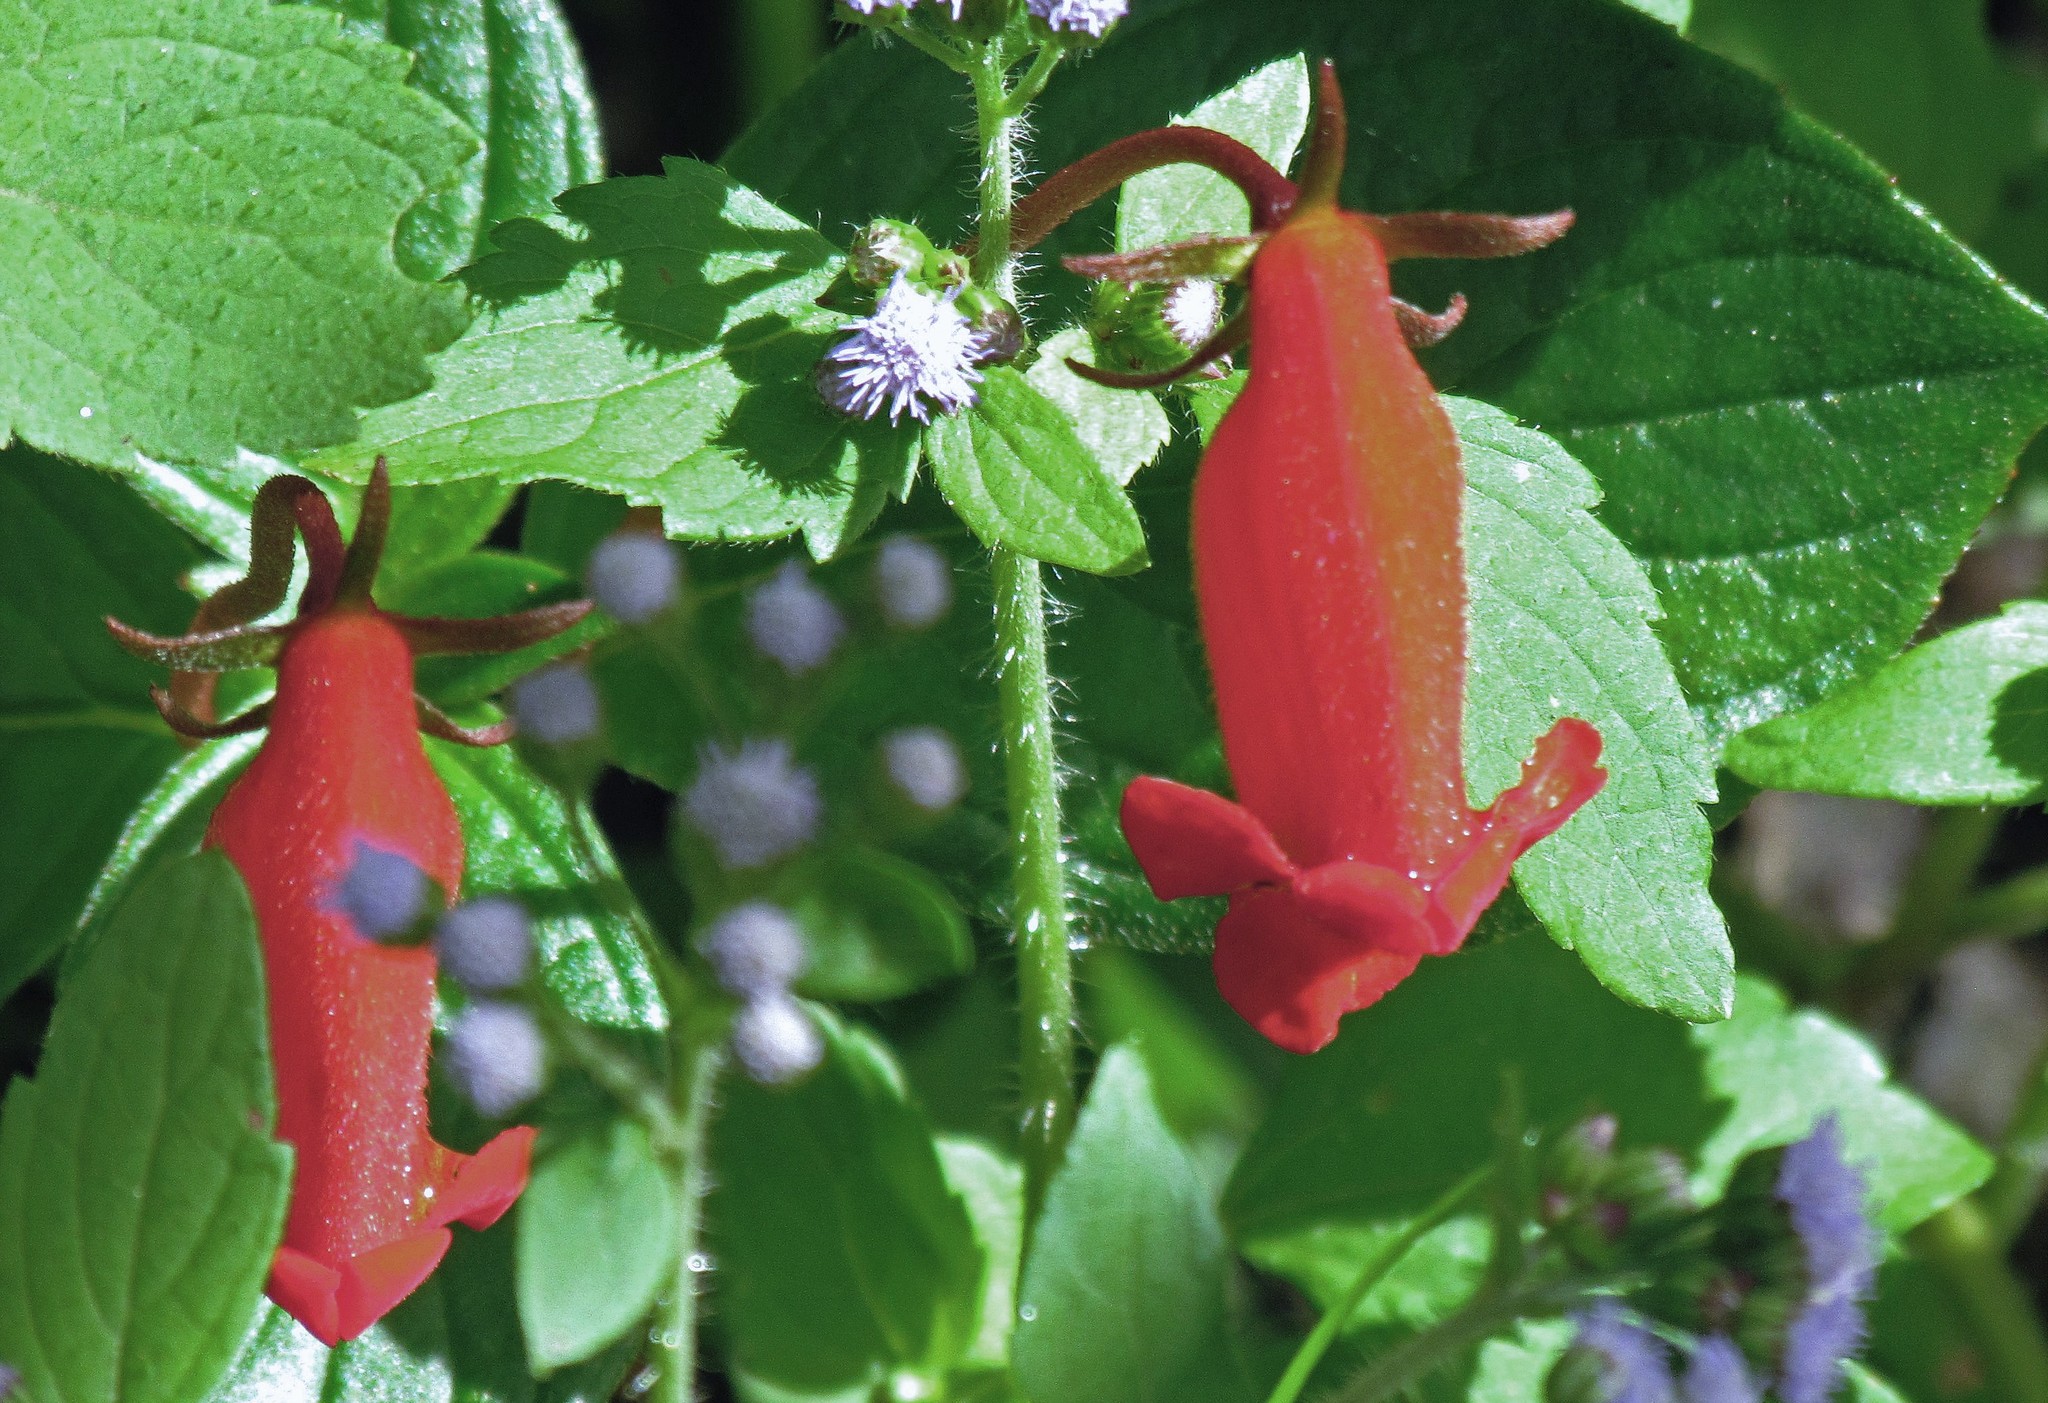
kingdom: Plantae
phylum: Tracheophyta
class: Magnoliopsida
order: Lamiales
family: Gesneriaceae
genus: Seemannia
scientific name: Seemannia nematanthodes
